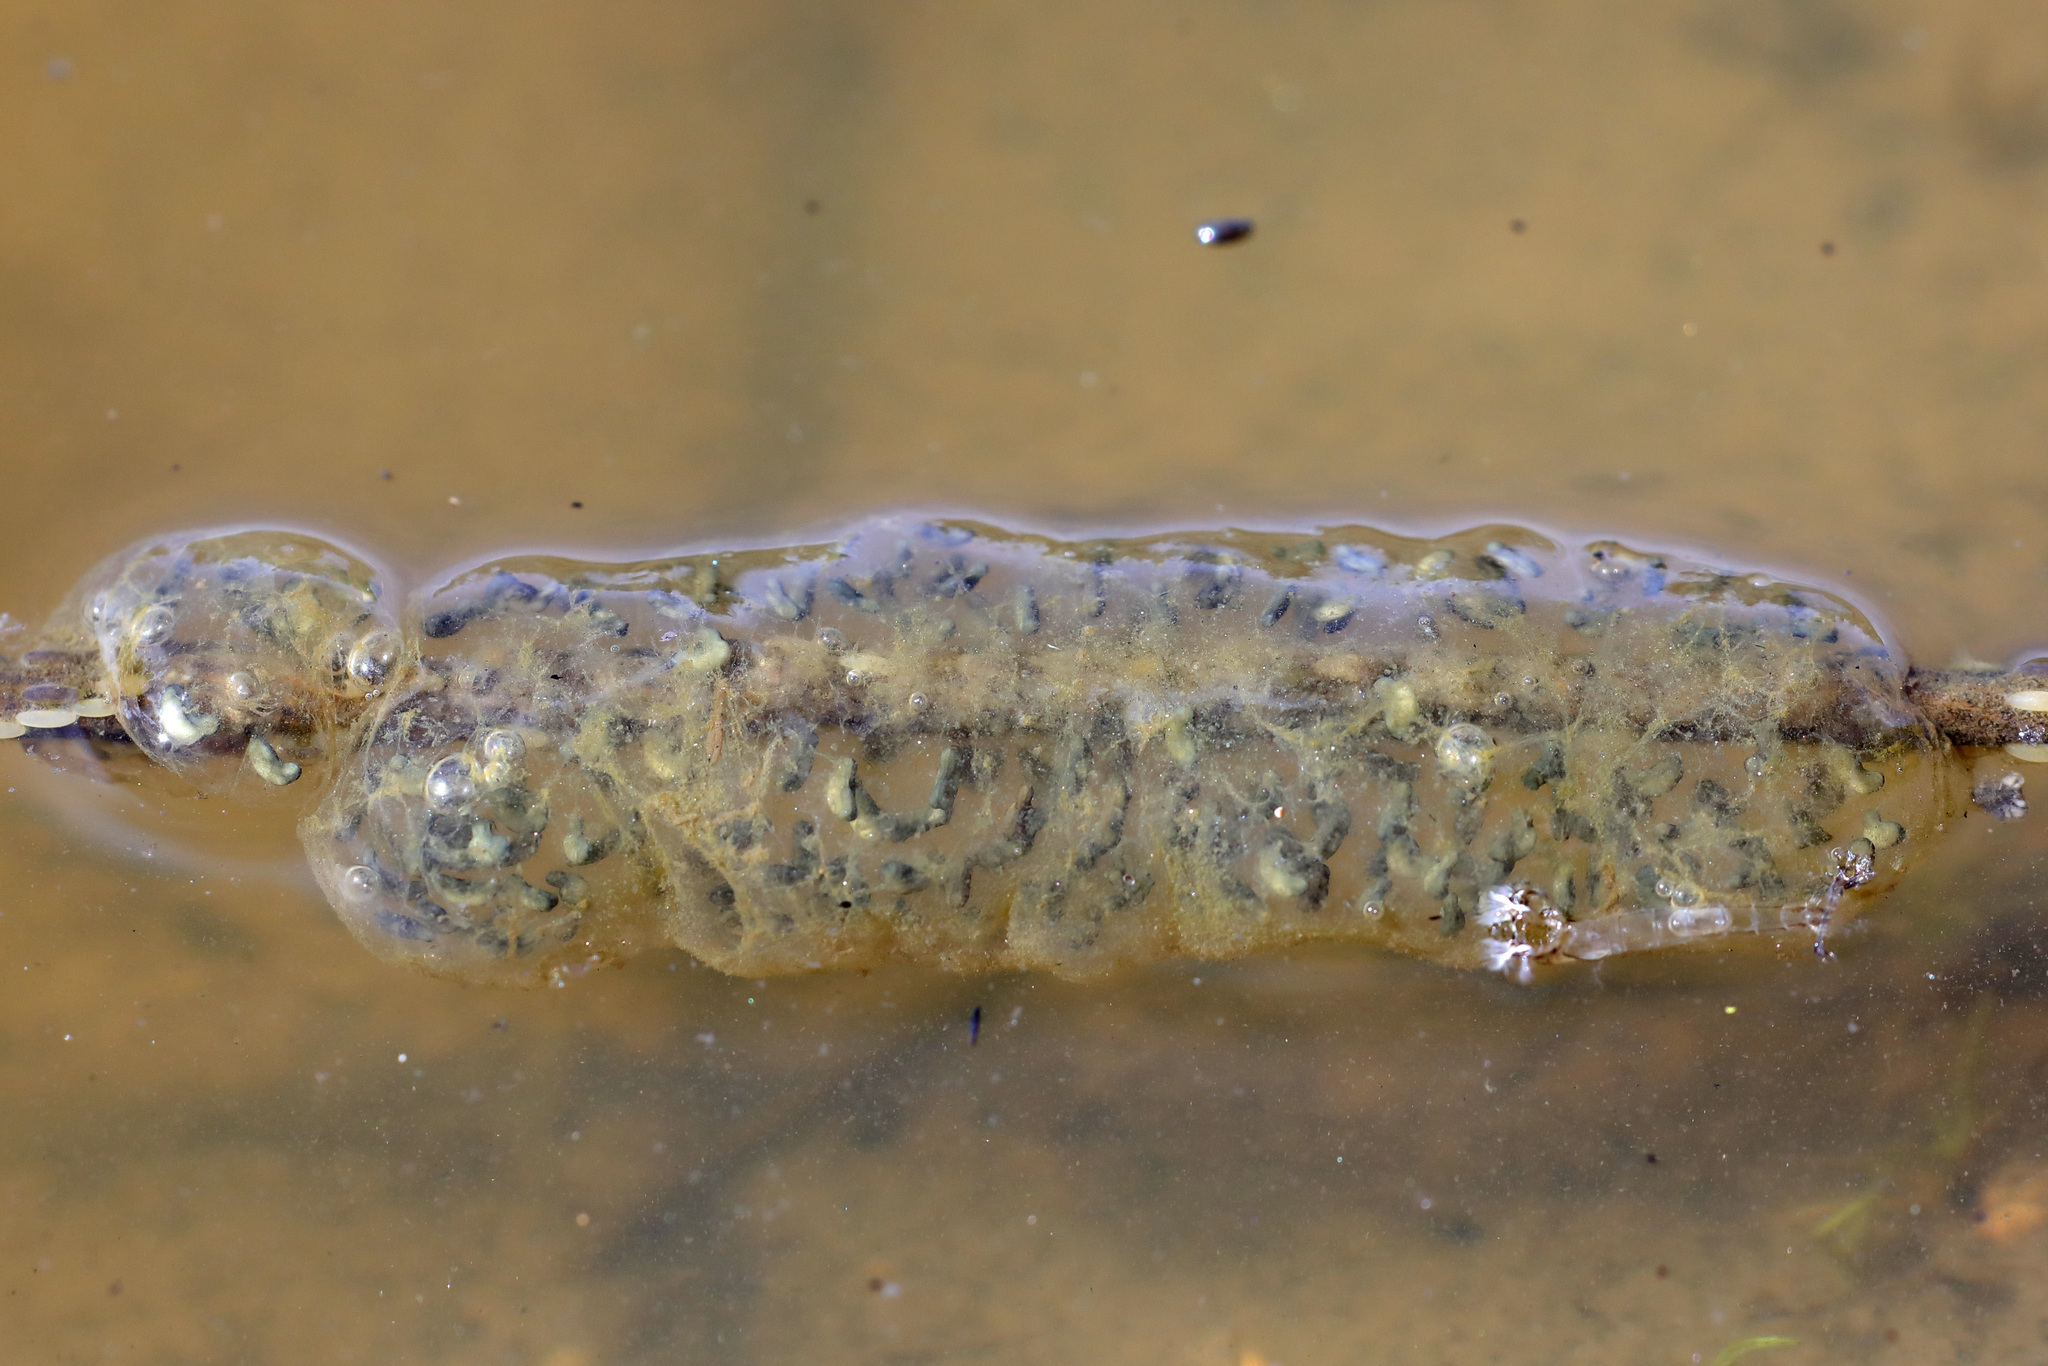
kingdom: Animalia
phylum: Chordata
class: Amphibia
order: Anura
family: Hylidae
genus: Pseudacris
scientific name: Pseudacris regilla
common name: Pacific chorus frog
